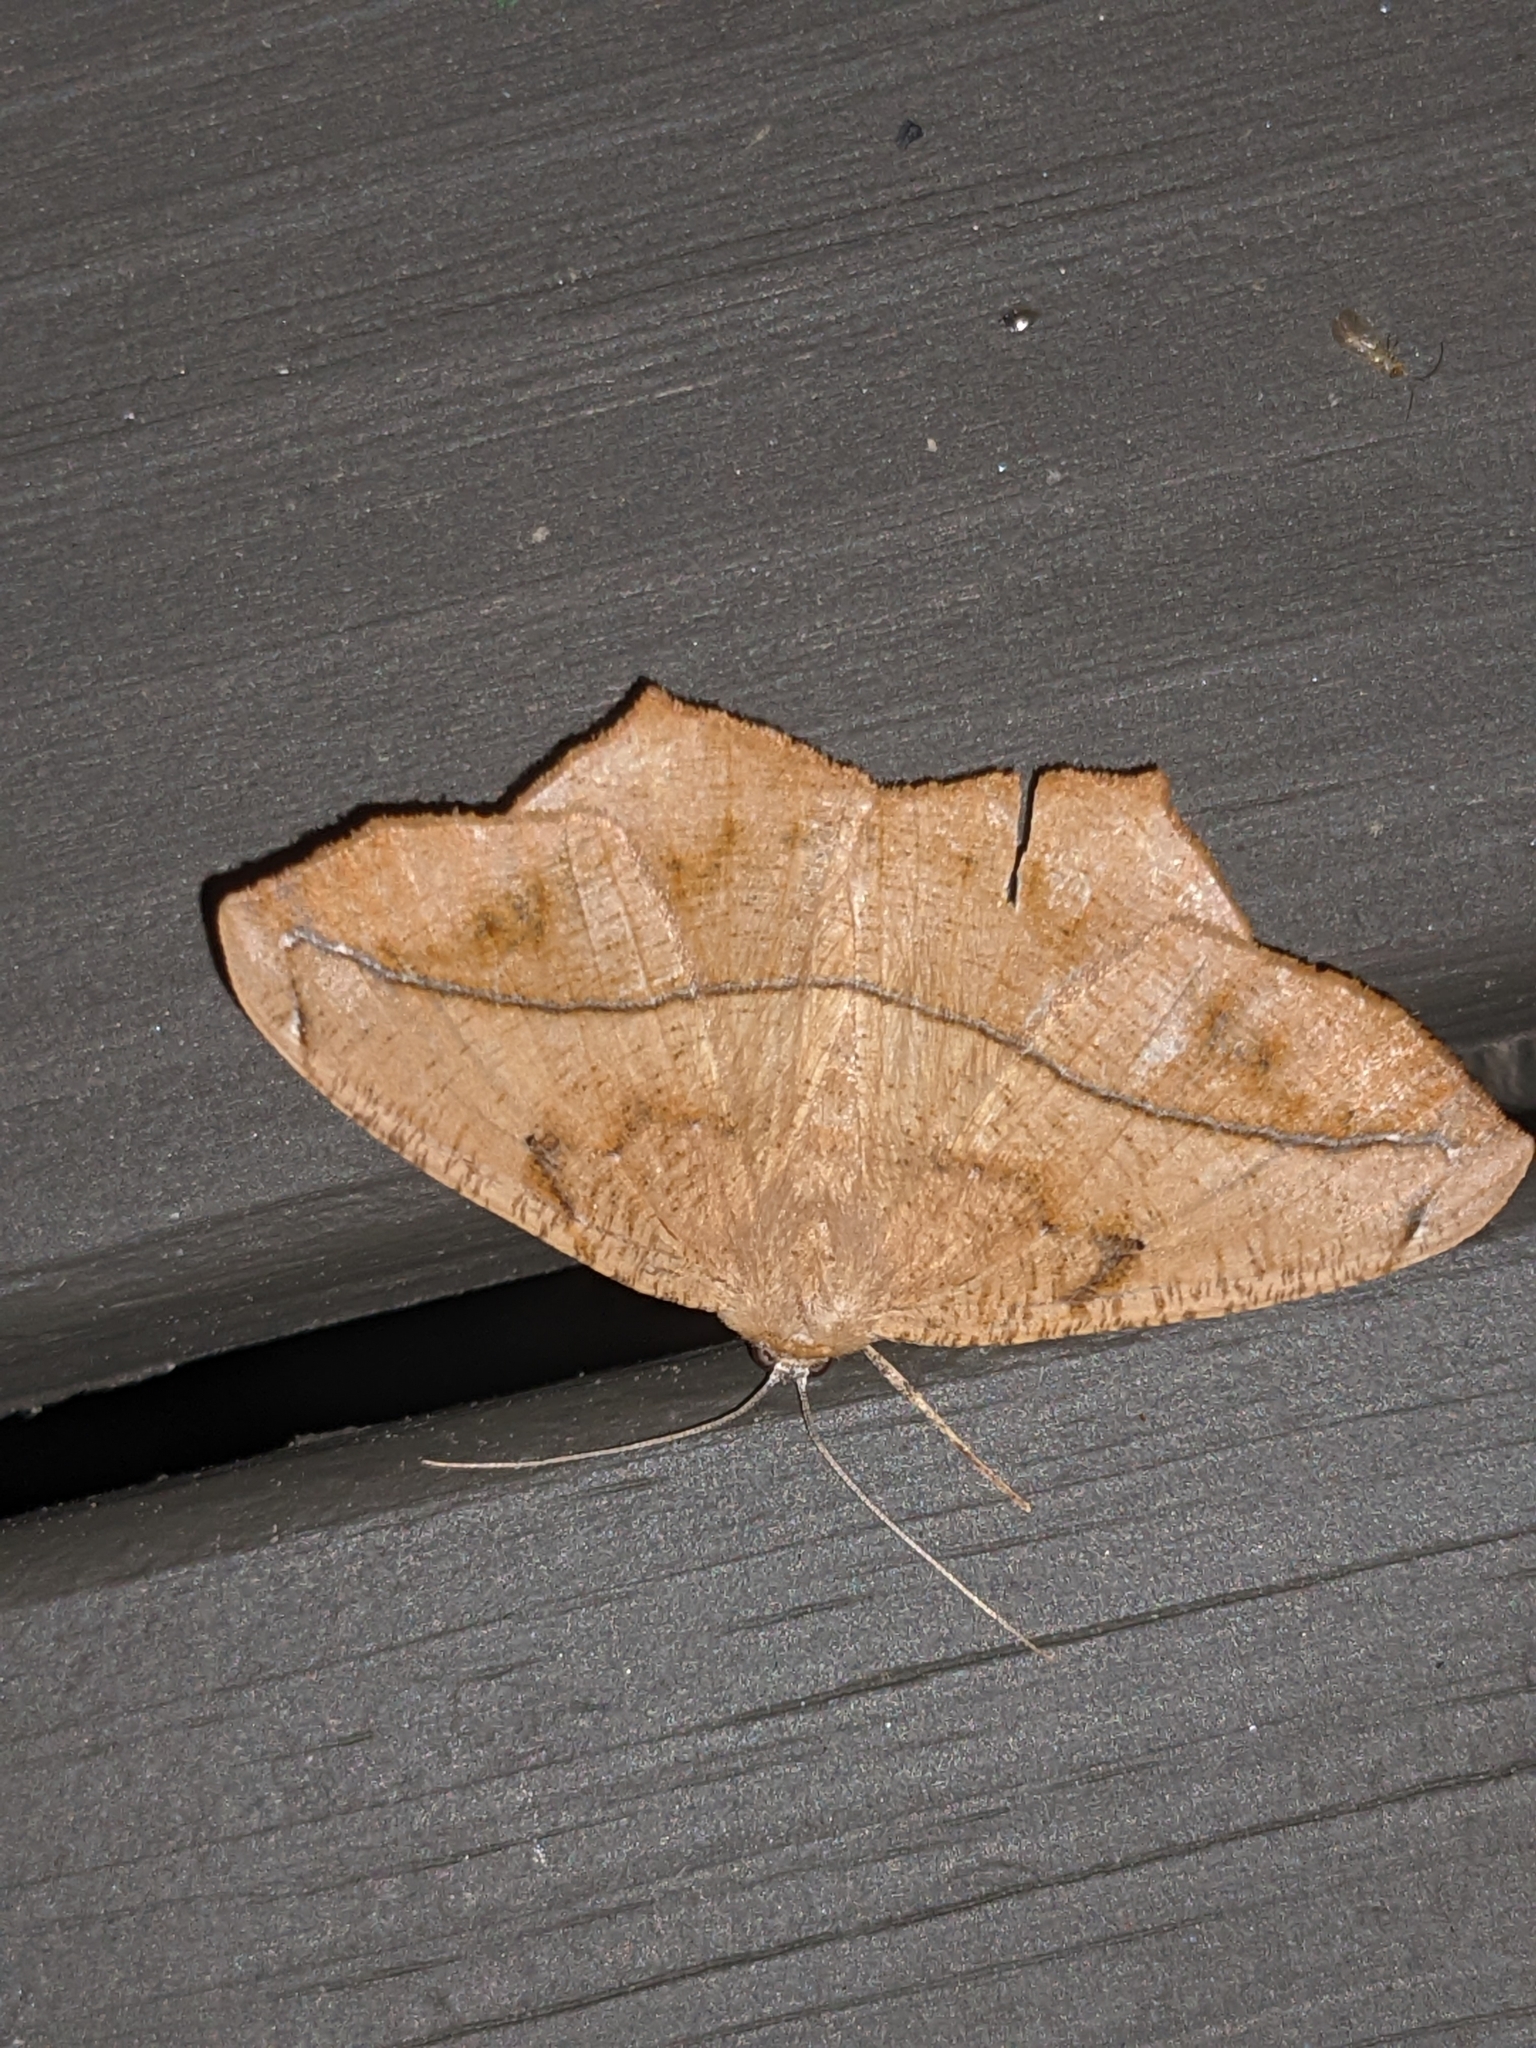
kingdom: Animalia
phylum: Arthropoda
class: Insecta
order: Lepidoptera
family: Geometridae
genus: Prochoerodes
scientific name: Prochoerodes lineola
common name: Large maple spanworm
